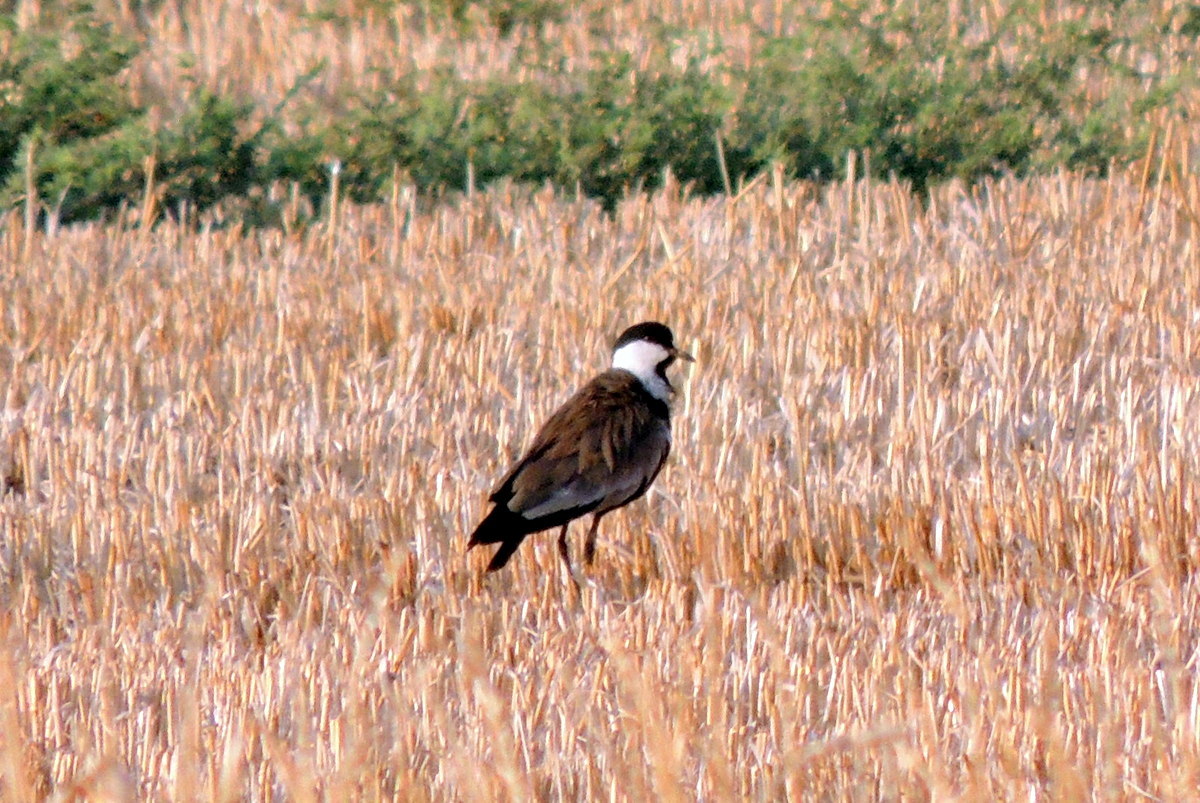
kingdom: Animalia
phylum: Chordata
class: Aves
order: Charadriiformes
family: Charadriidae
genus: Vanellus
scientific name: Vanellus spinosus
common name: Spur-winged lapwing
